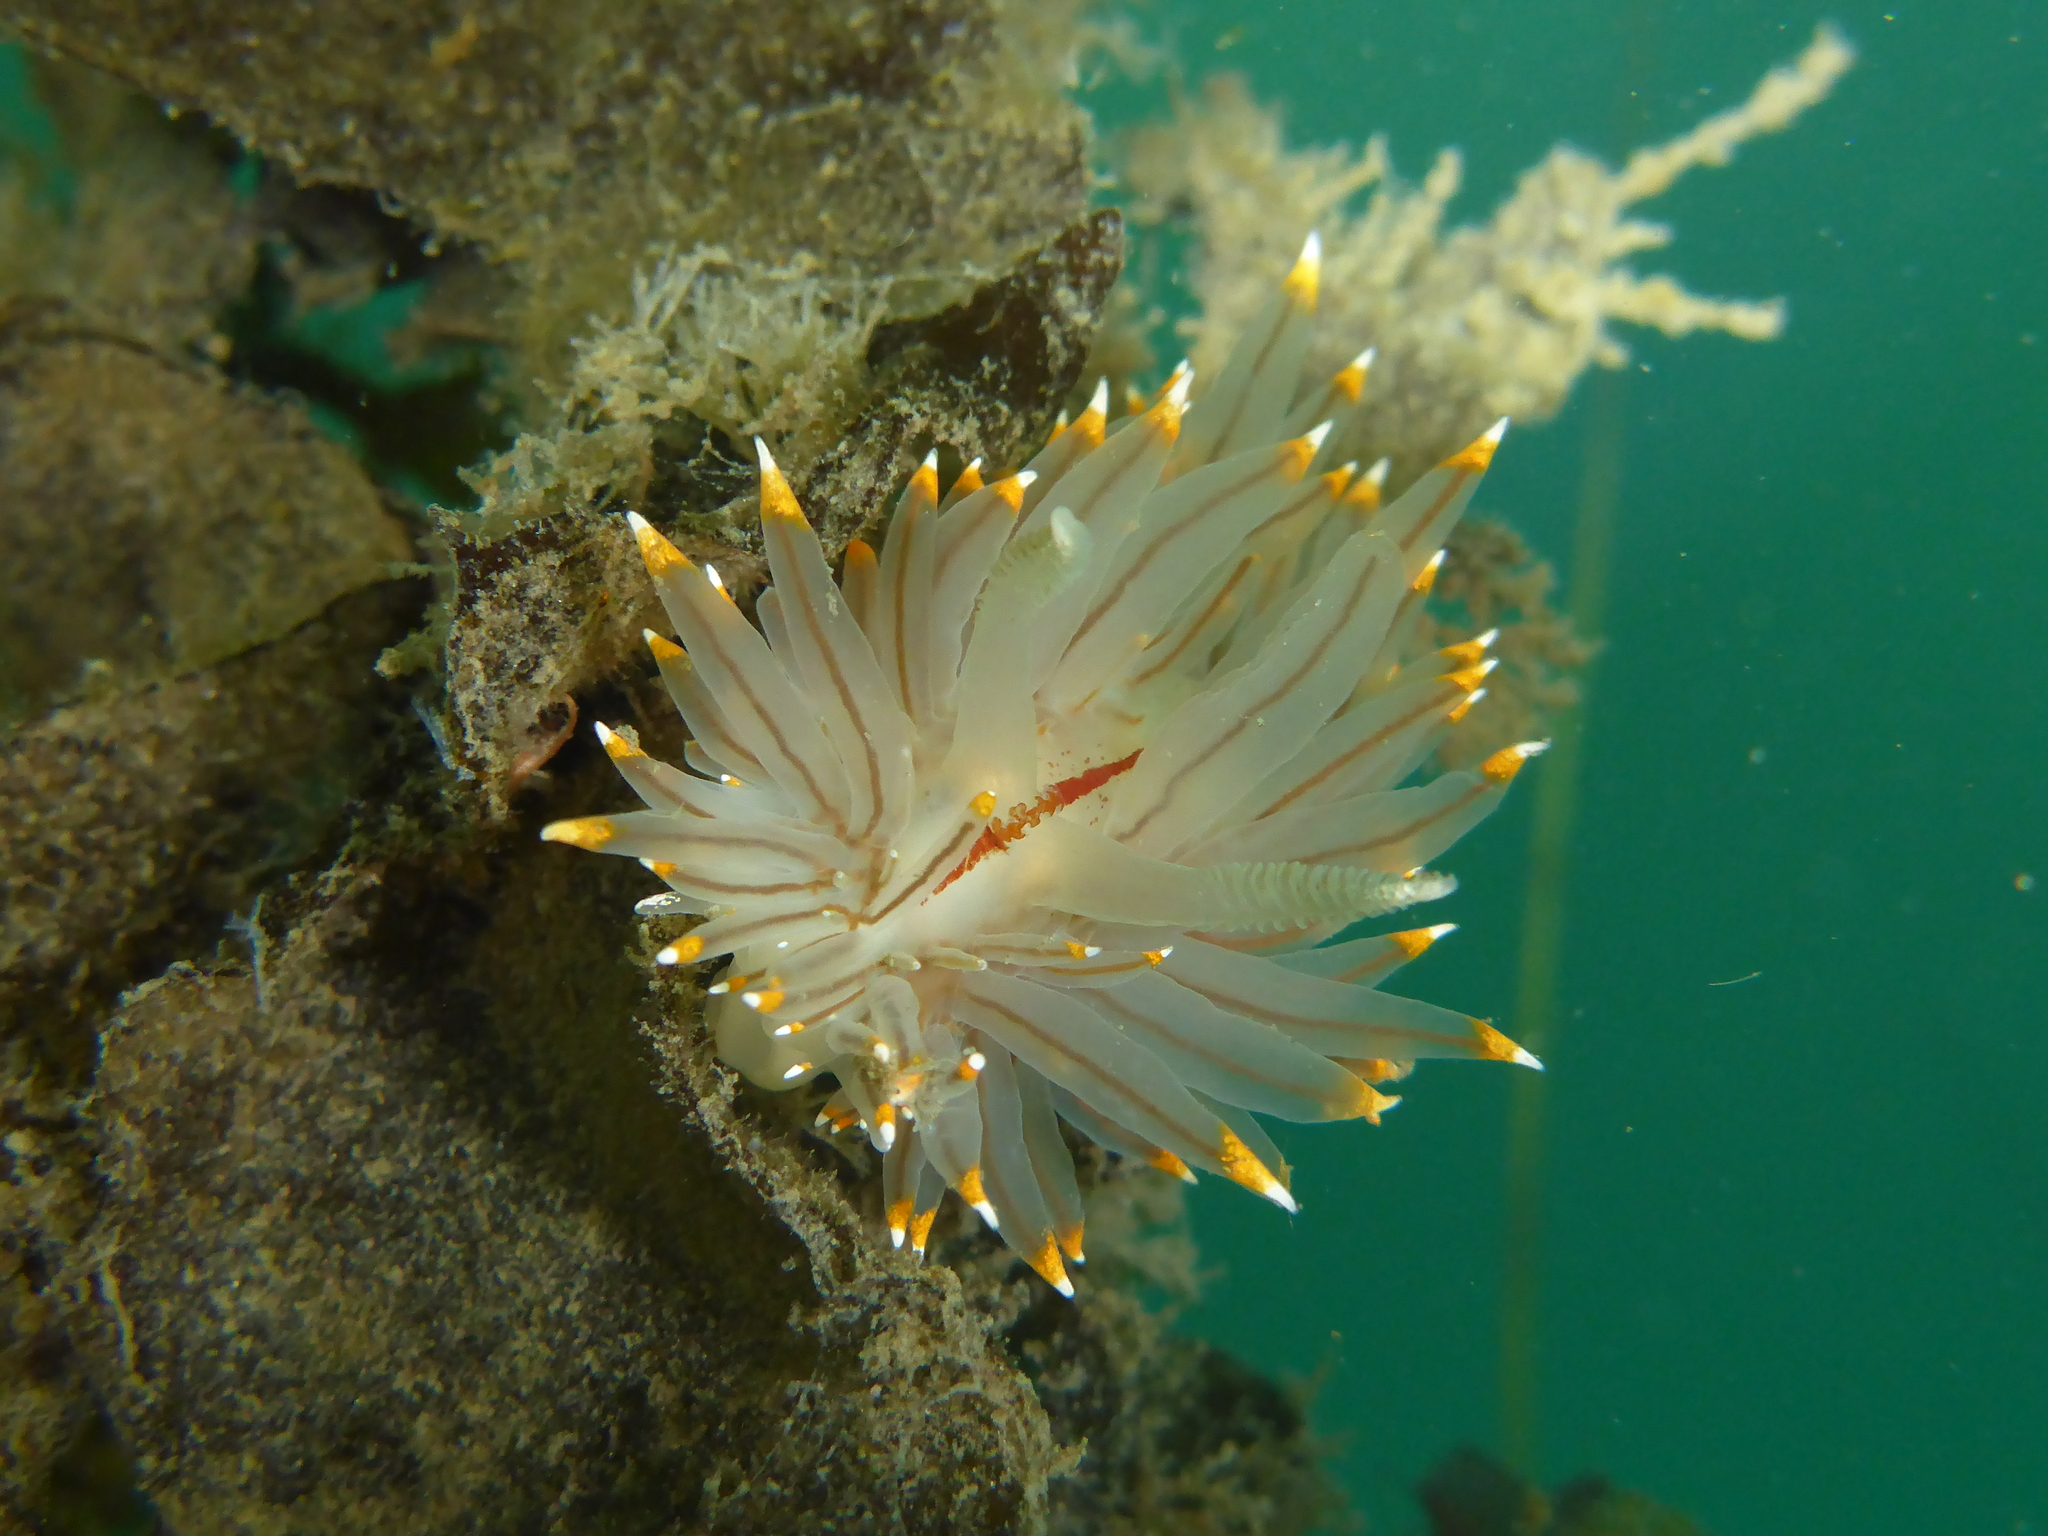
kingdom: Animalia
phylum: Mollusca
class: Gastropoda
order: Nudibranchia
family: Janolidae
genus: Antiopella
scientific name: Antiopella fusca
